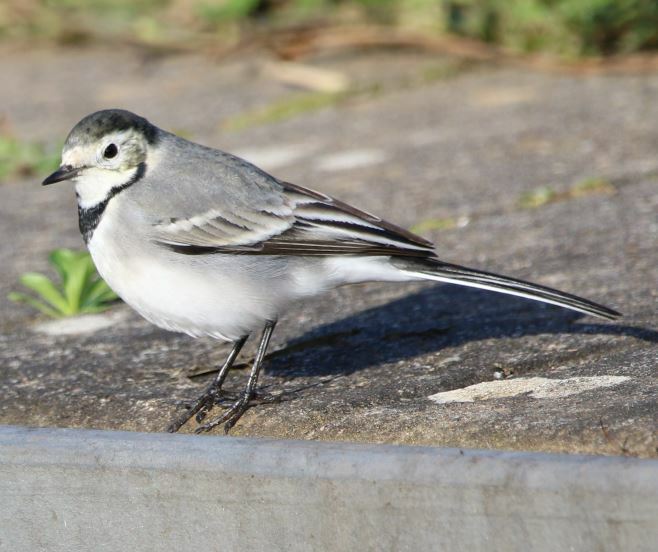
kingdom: Animalia
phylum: Chordata
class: Aves
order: Passeriformes
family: Motacillidae
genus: Motacilla
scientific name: Motacilla alba
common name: White wagtail
